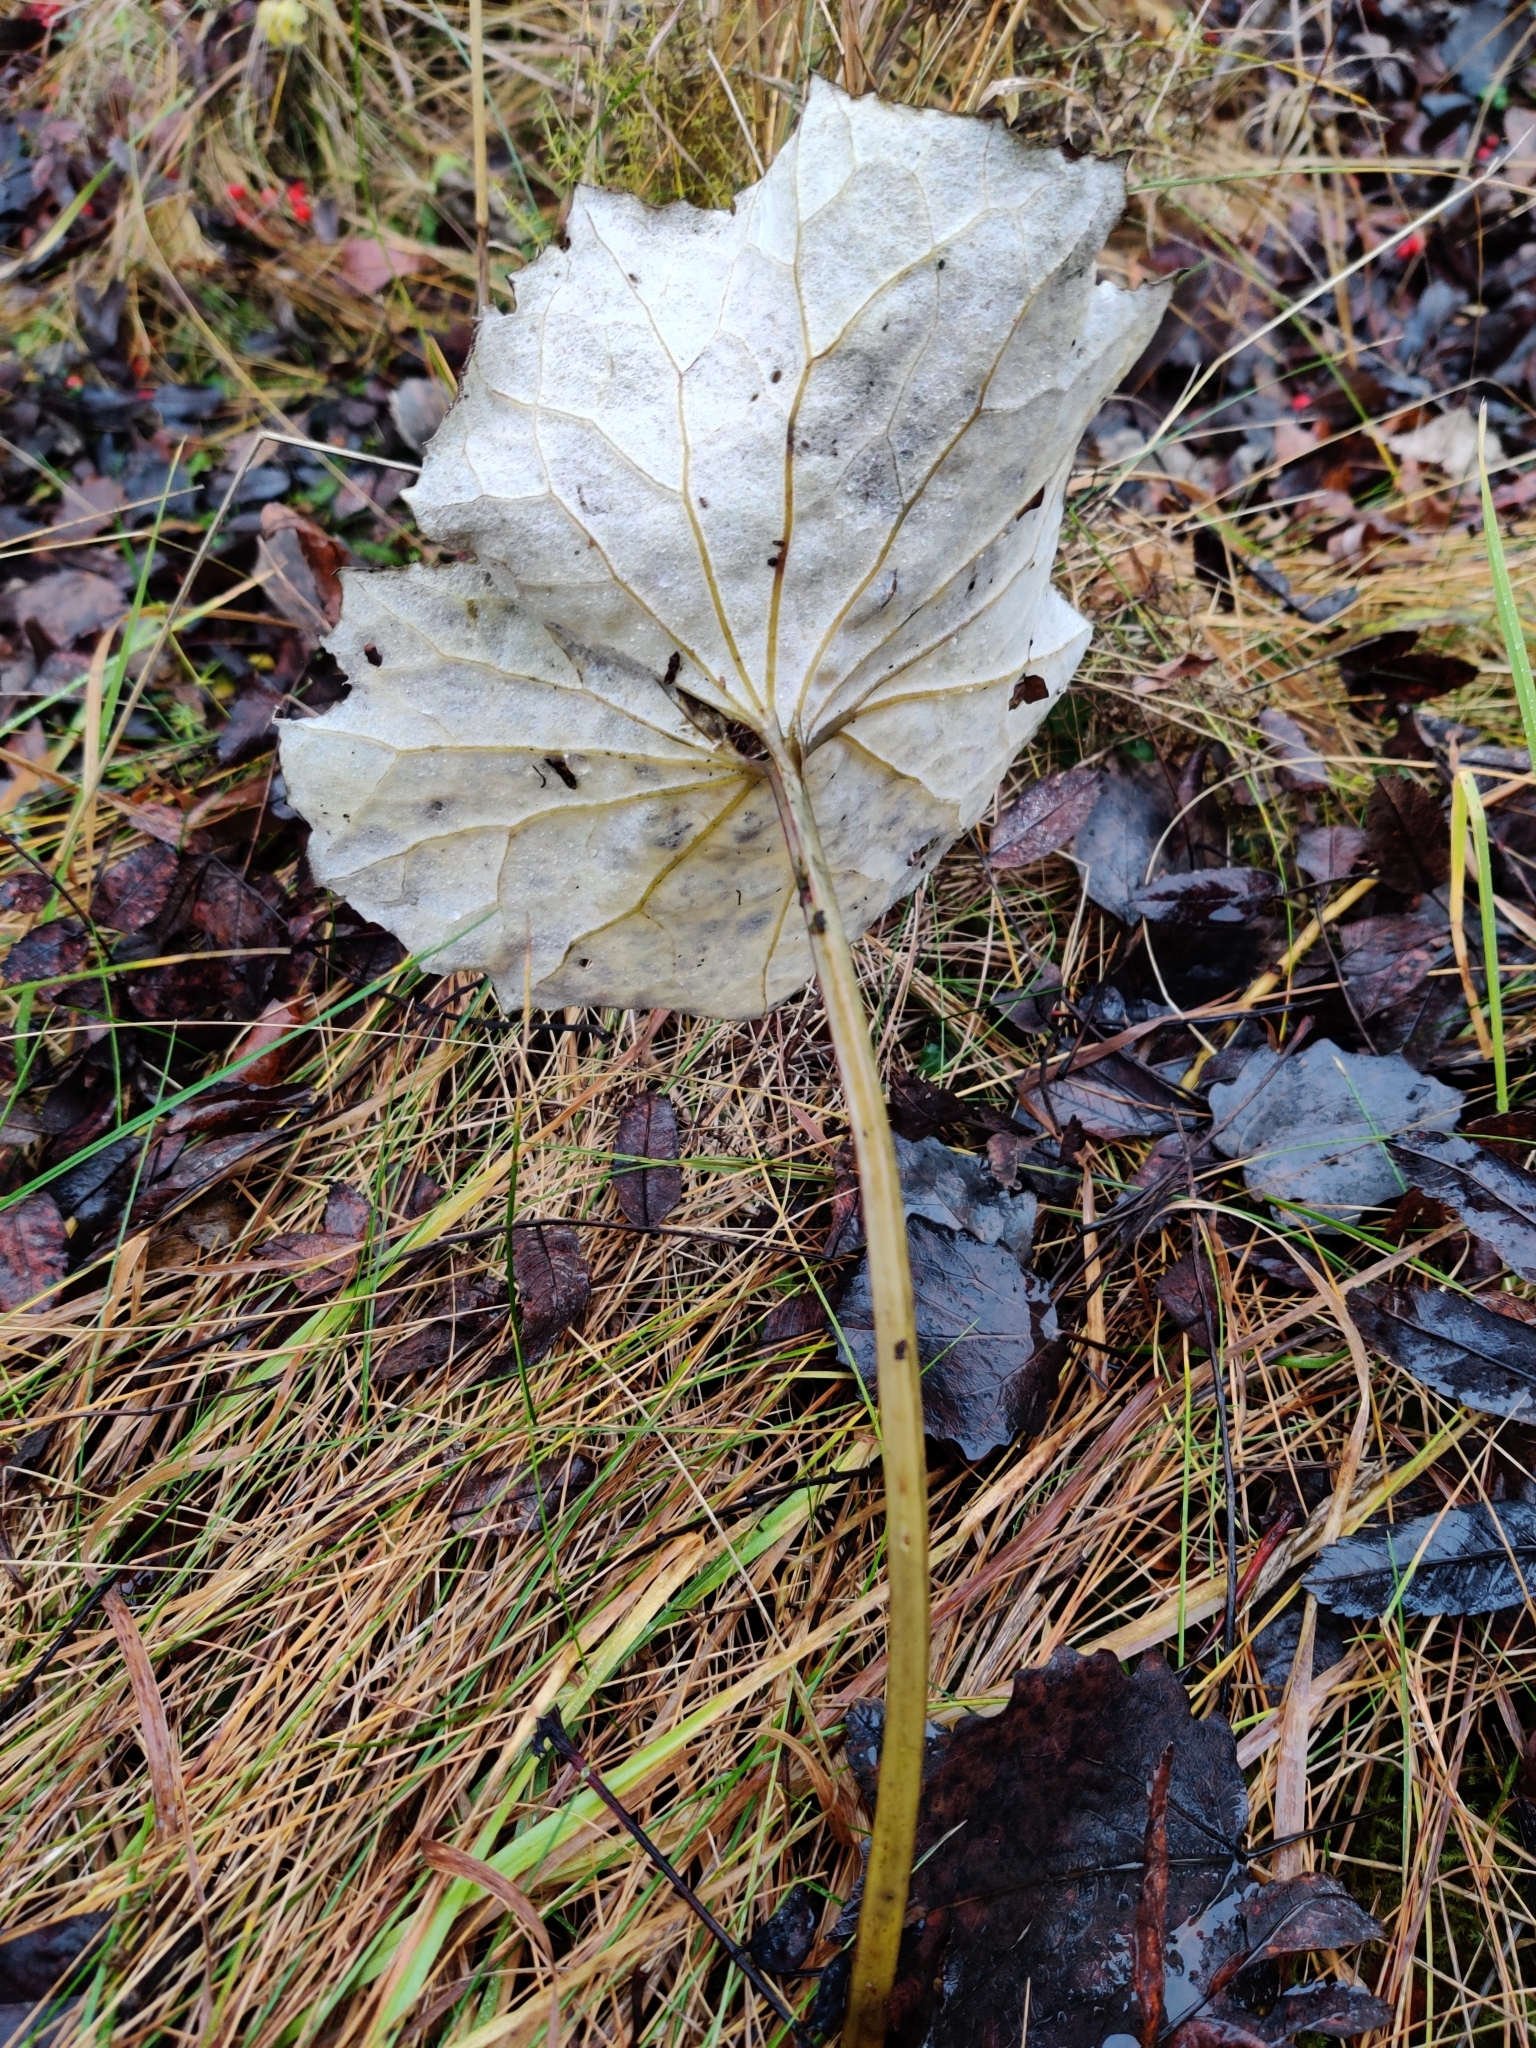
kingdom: Plantae
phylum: Tracheophyta
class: Magnoliopsida
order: Asterales
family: Asteraceae
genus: Tussilago
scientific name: Tussilago farfara
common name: Coltsfoot
